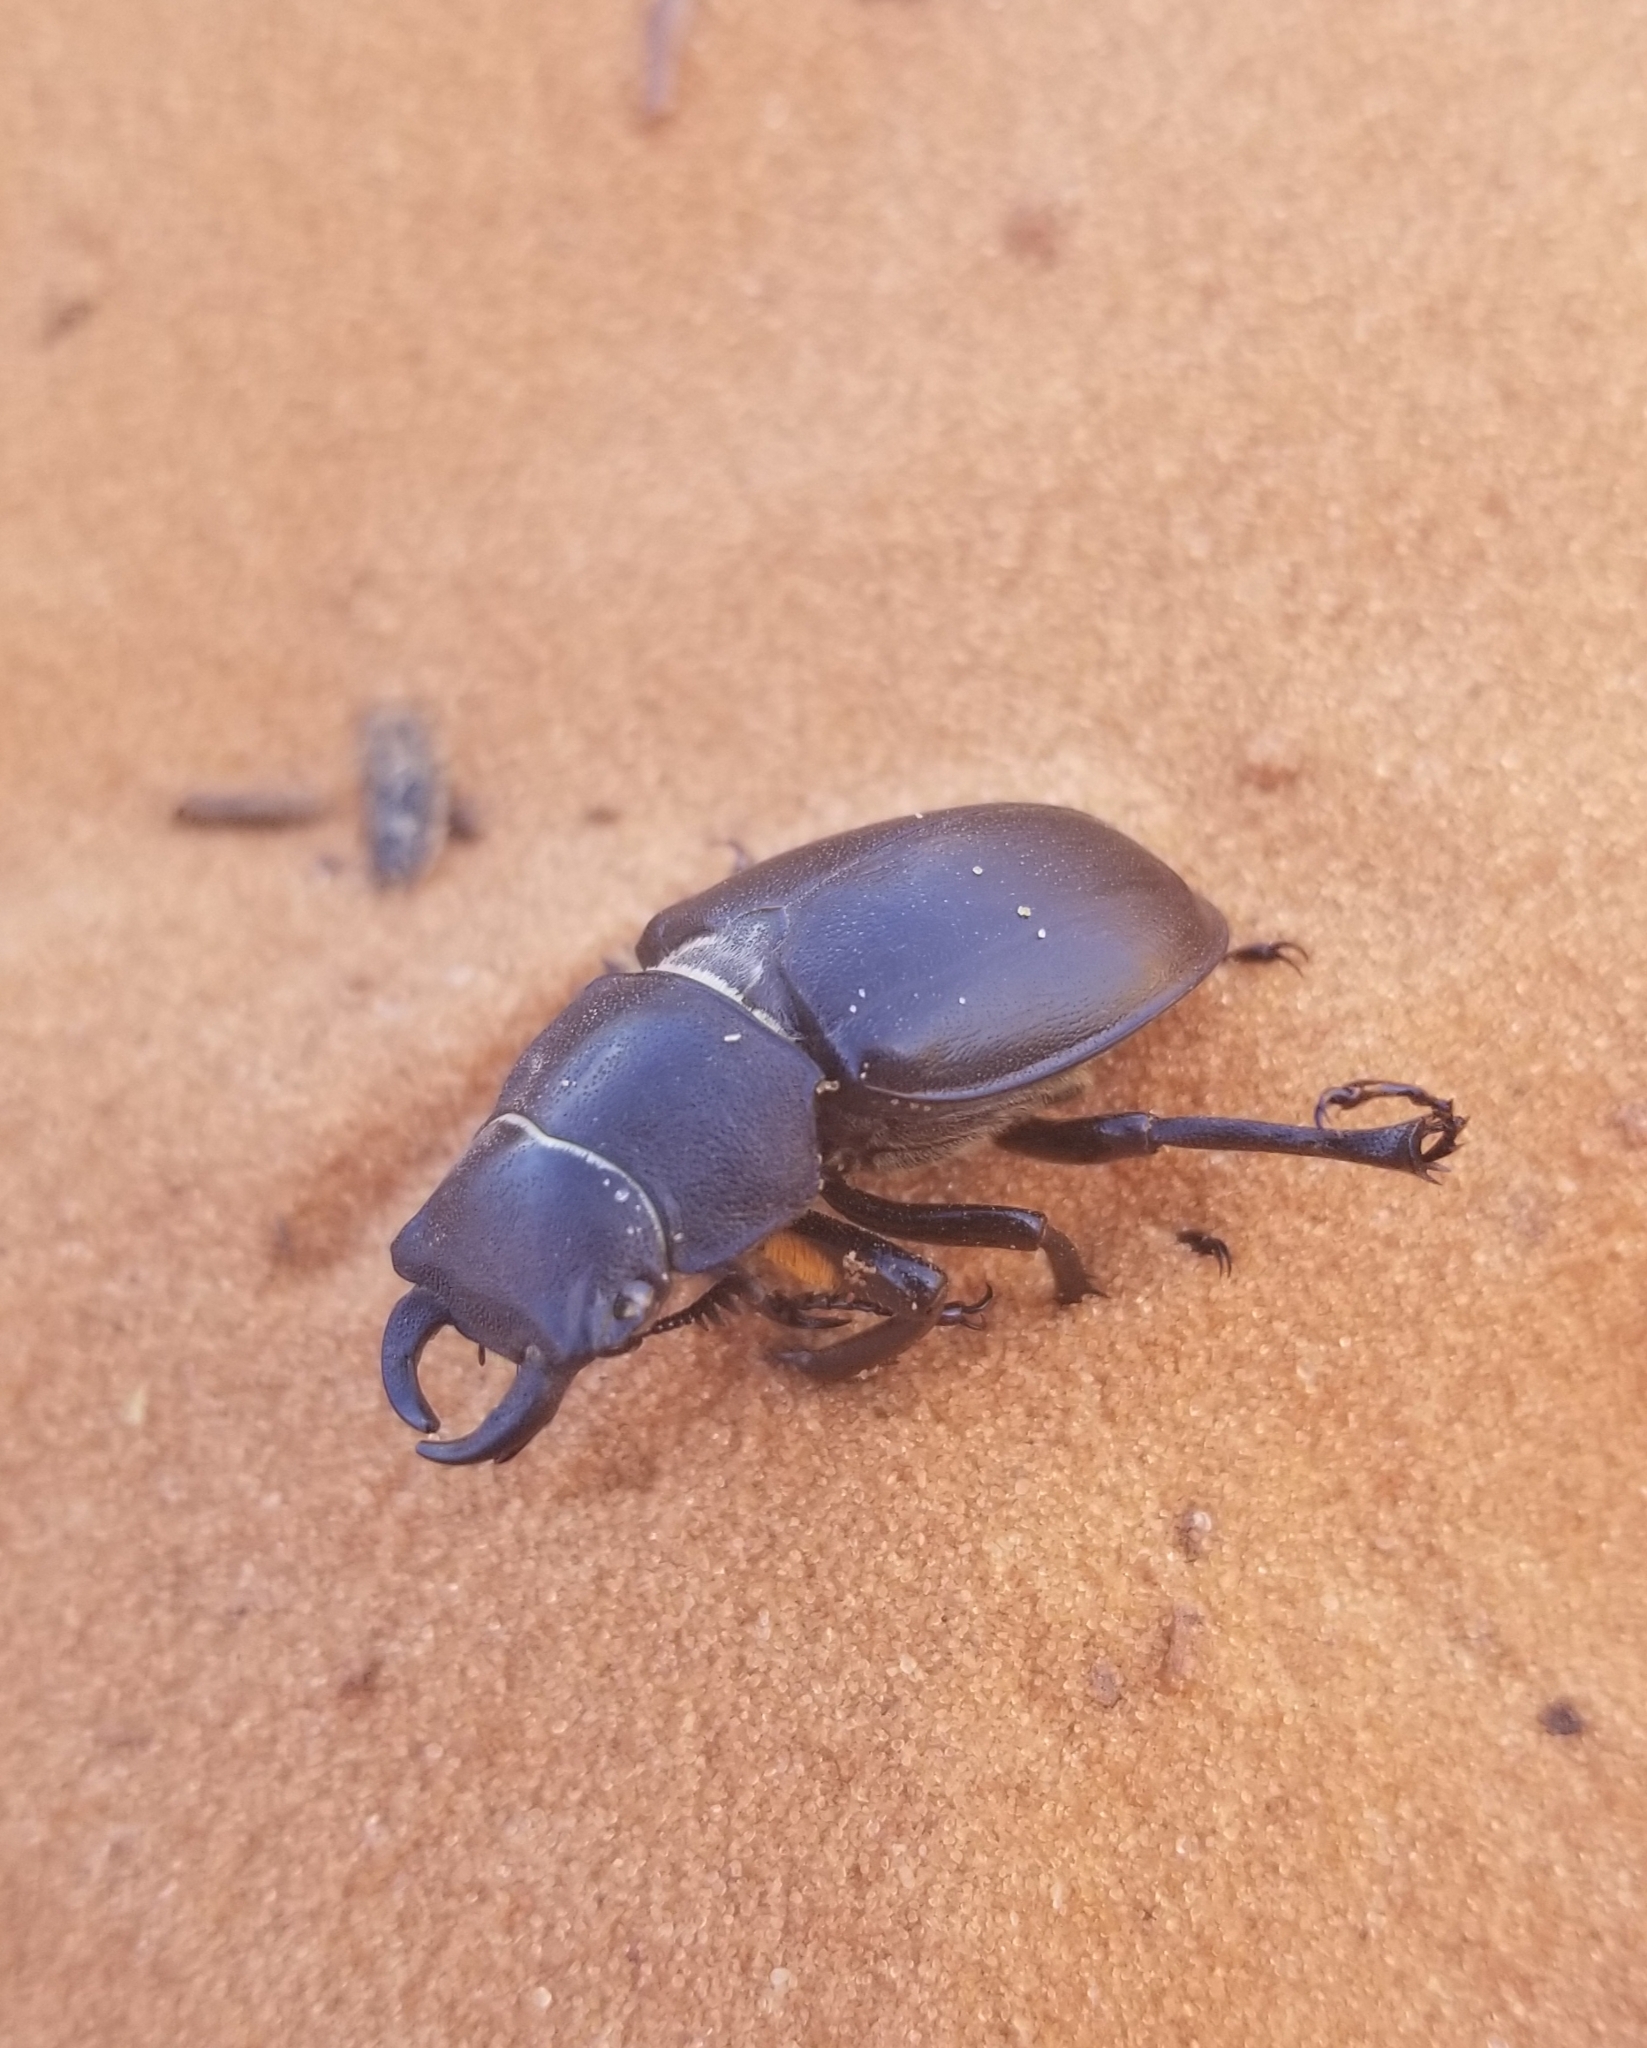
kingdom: Animalia
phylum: Arthropoda
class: Insecta
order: Coleoptera
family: Lucanidae
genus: Lucanus
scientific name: Lucanus mazama
